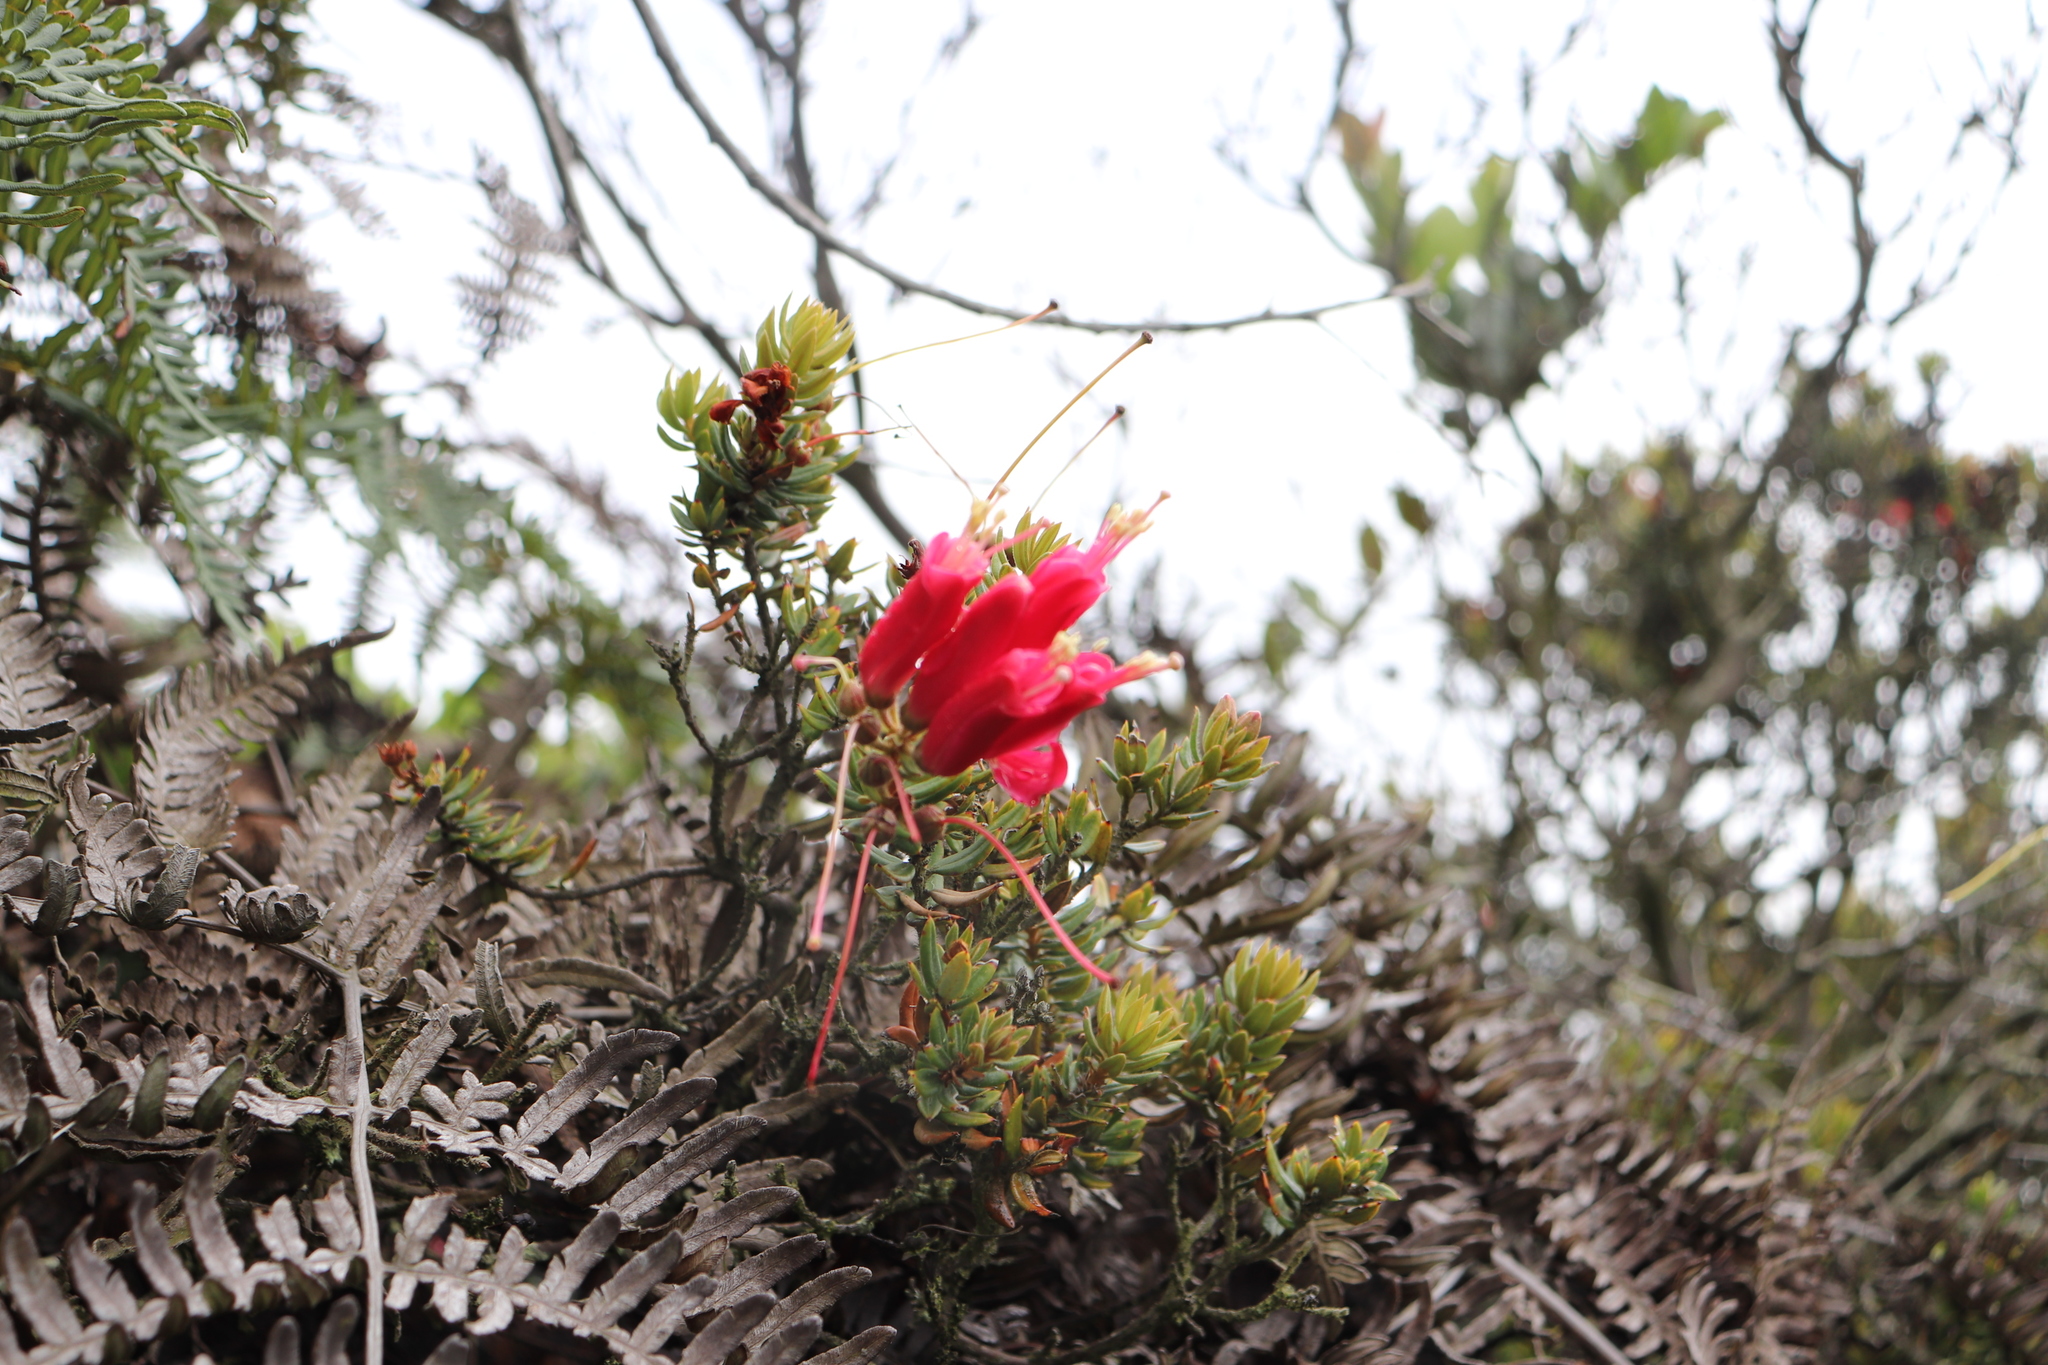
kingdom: Plantae
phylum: Tracheophyta
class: Magnoliopsida
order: Ericales
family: Ericaceae
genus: Bejaria
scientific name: Bejaria resinosa
